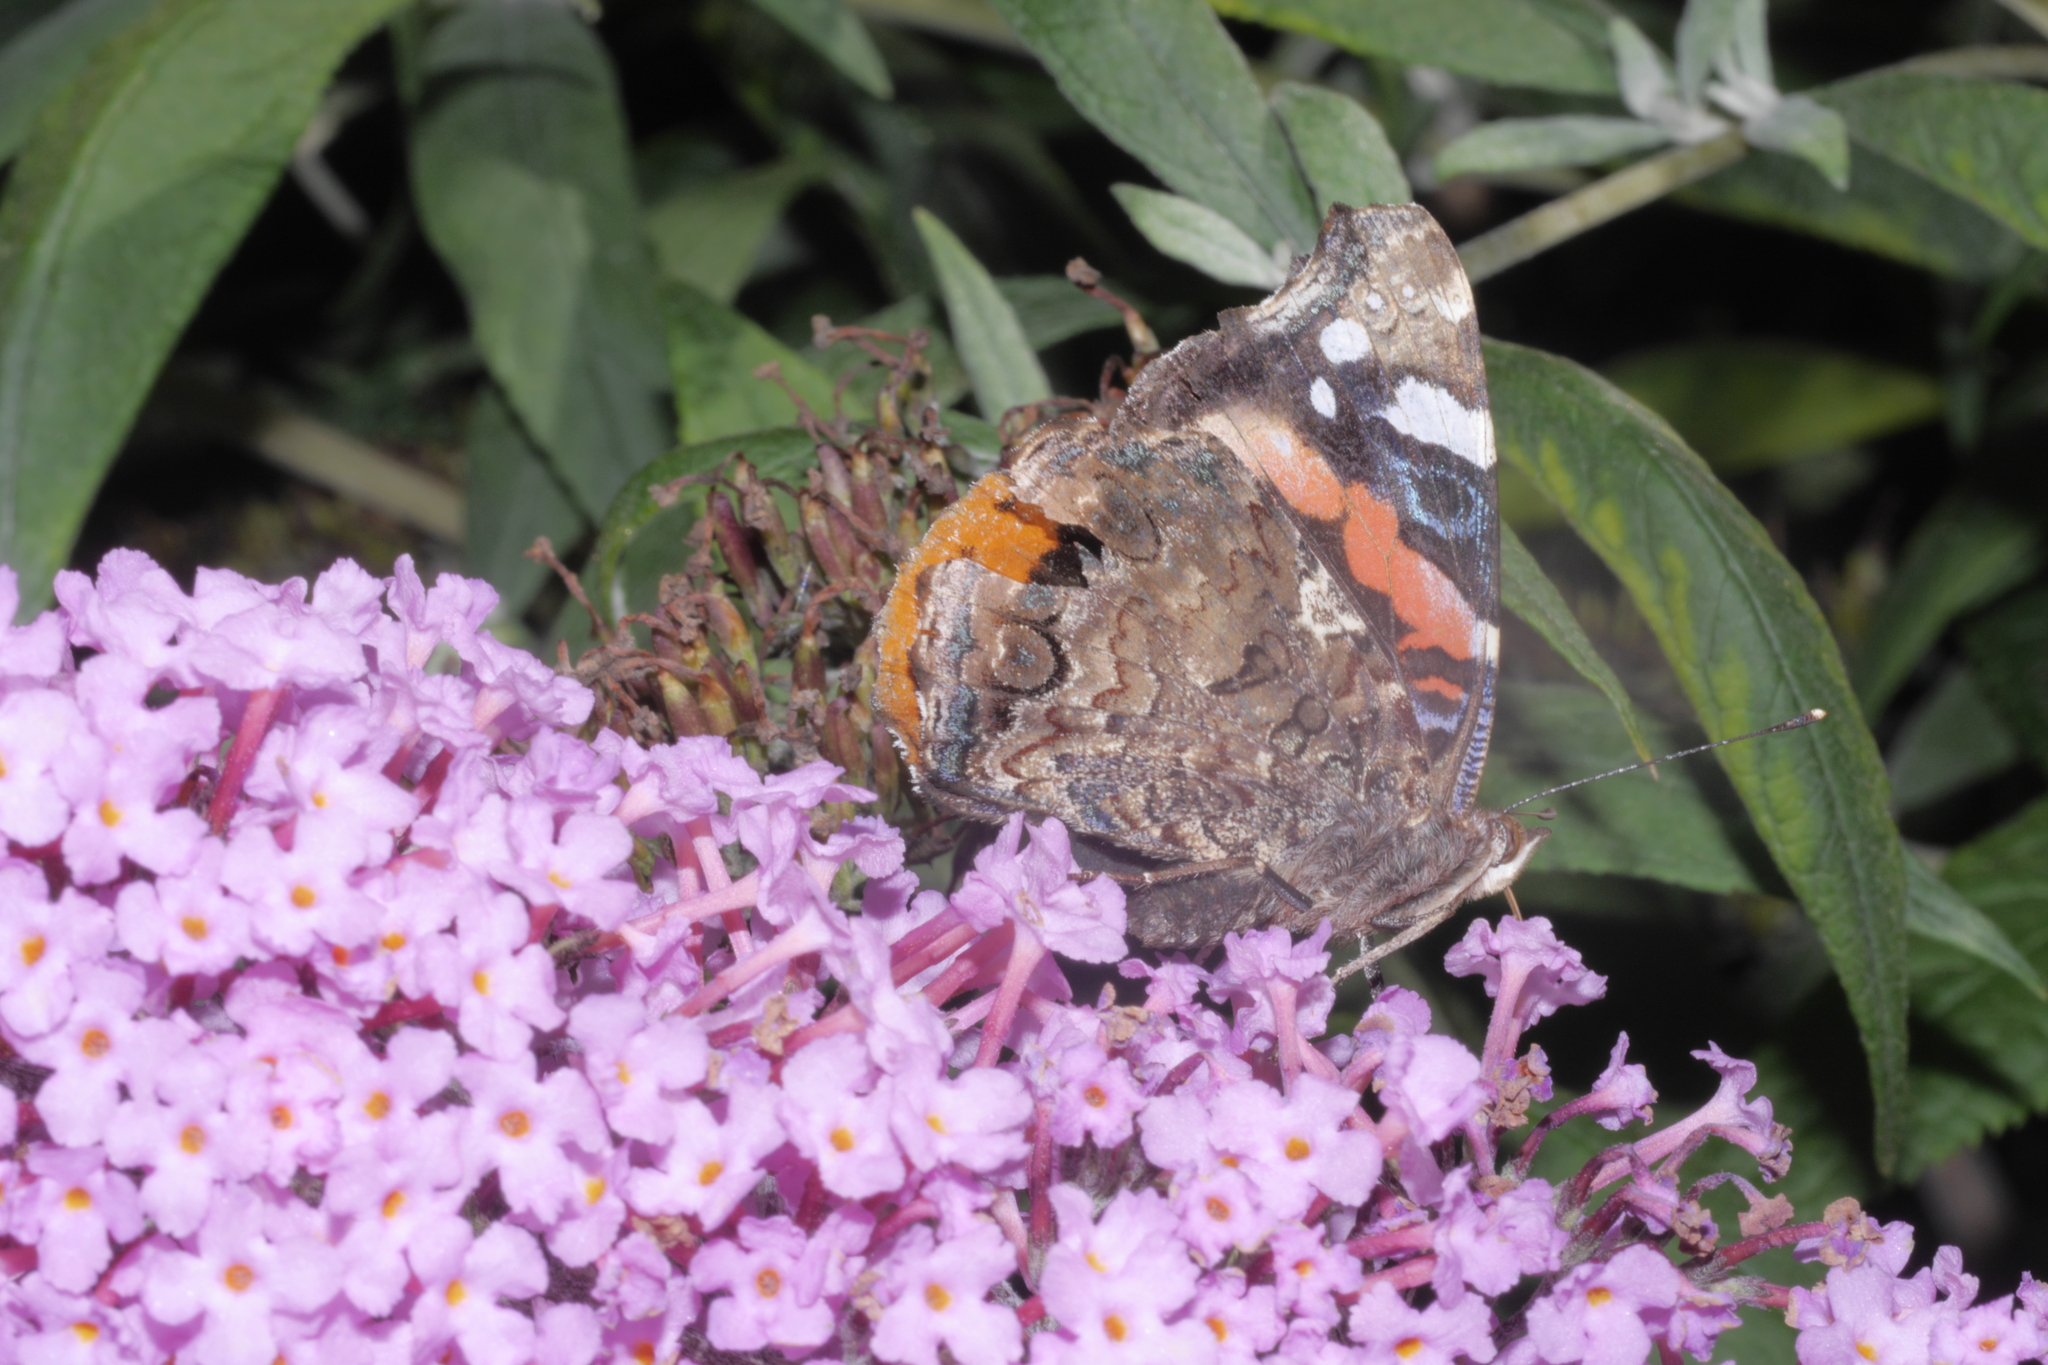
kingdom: Animalia
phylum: Arthropoda
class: Insecta
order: Lepidoptera
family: Nymphalidae
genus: Vanessa
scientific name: Vanessa atalanta
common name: Red admiral
